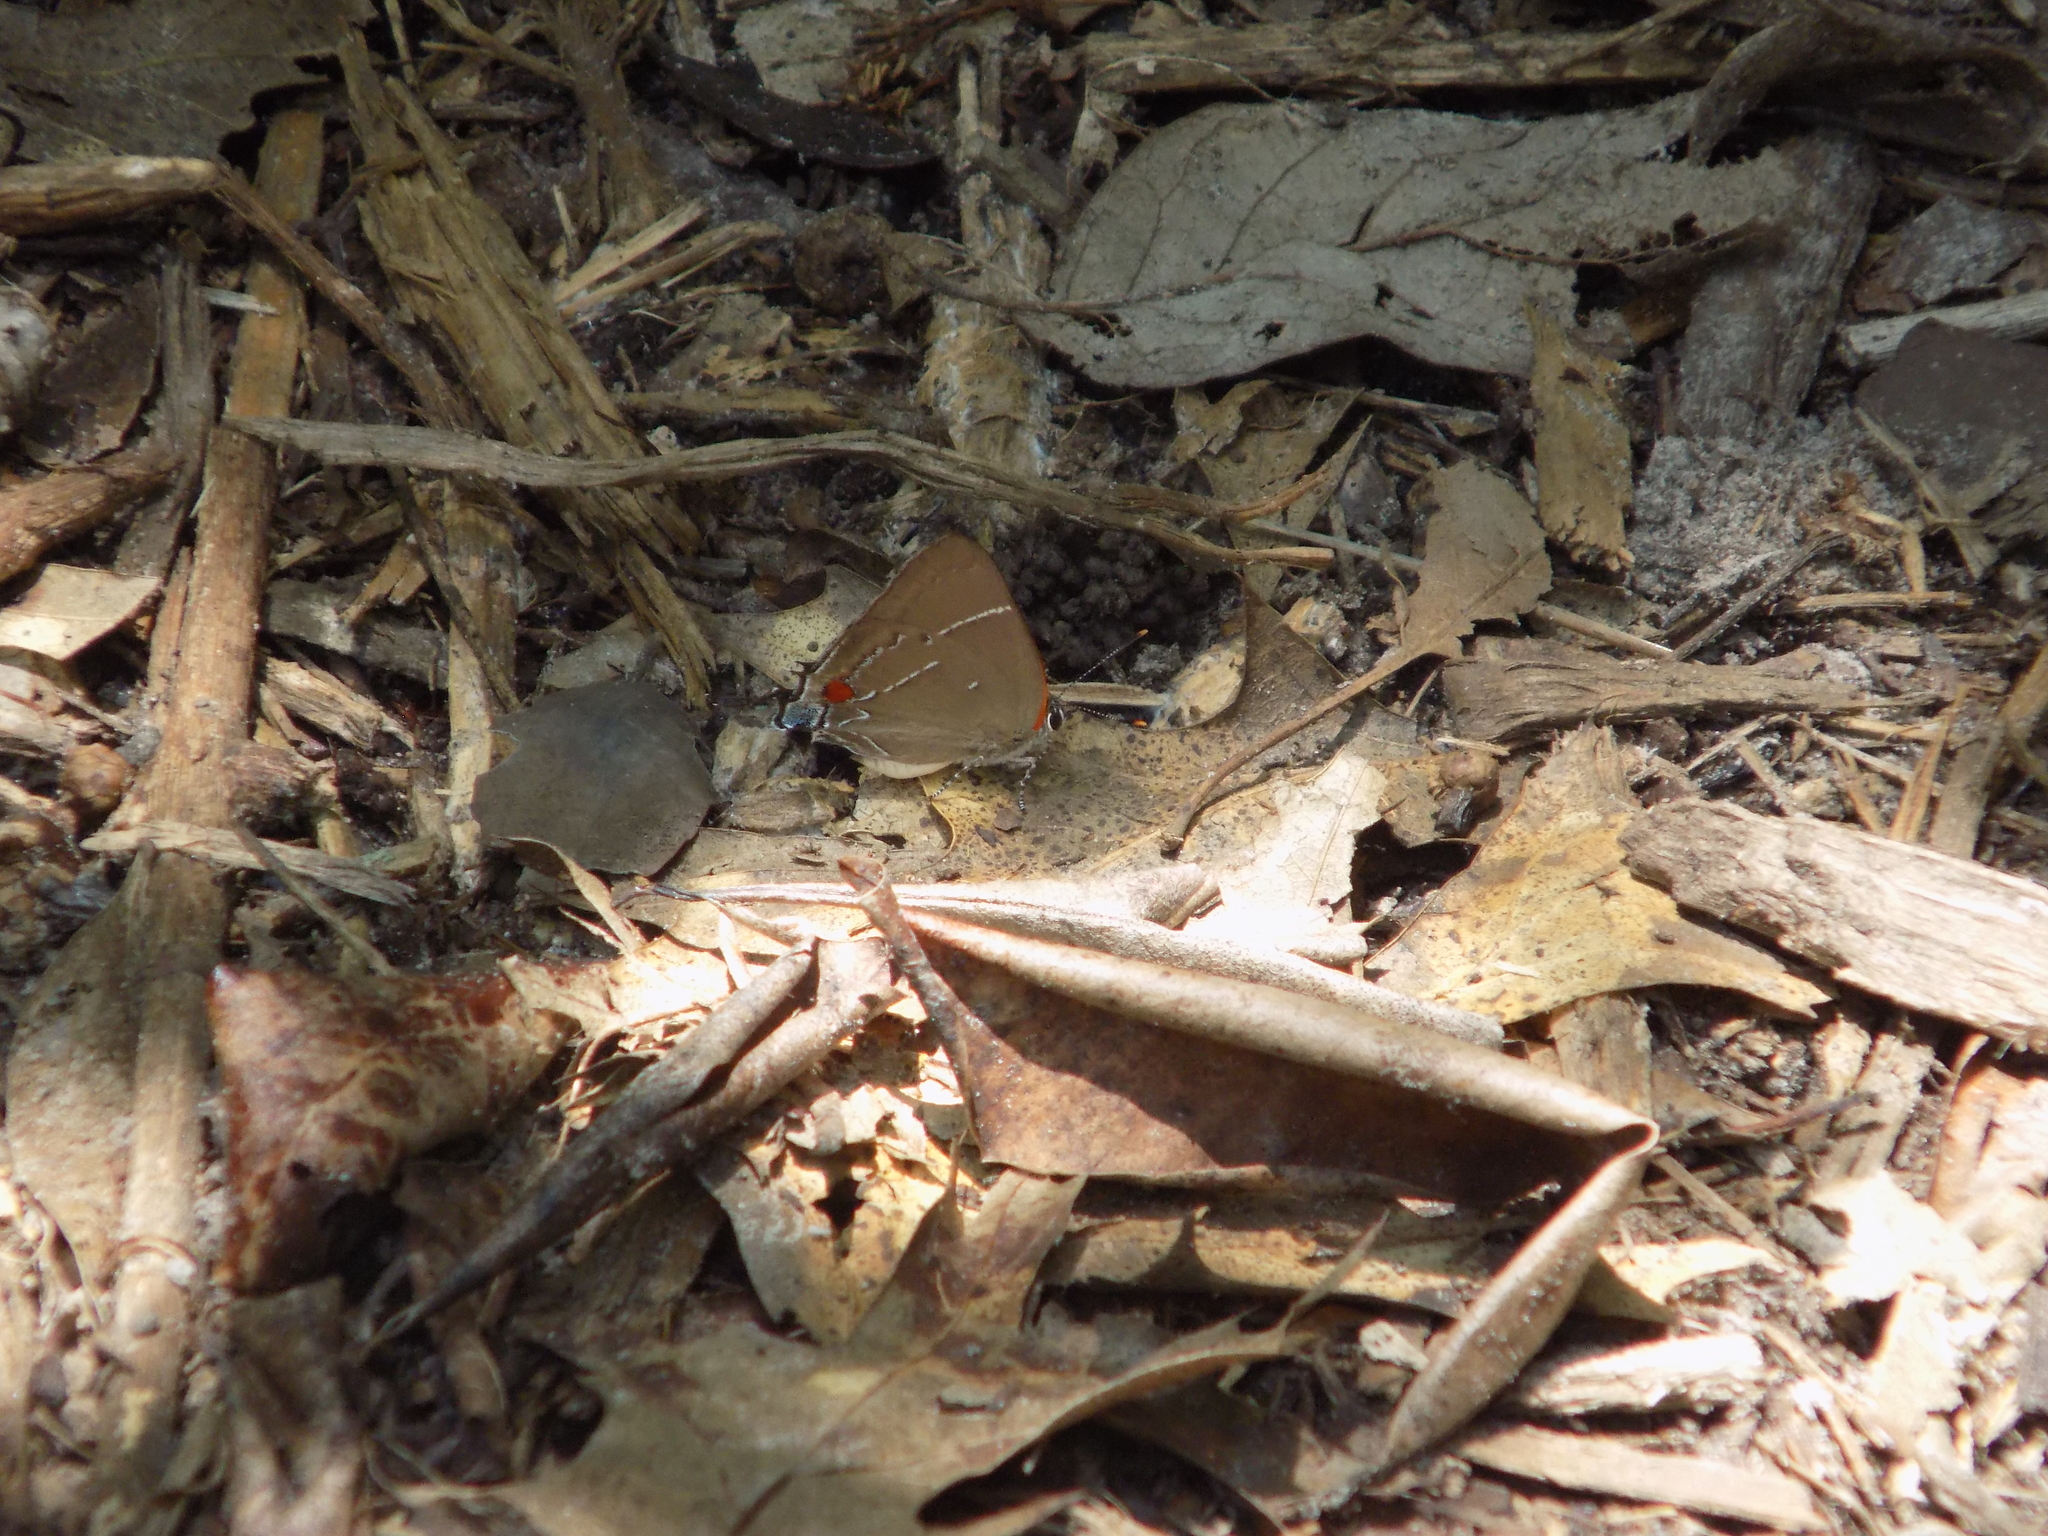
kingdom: Animalia
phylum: Arthropoda
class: Insecta
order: Lepidoptera
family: Lycaenidae
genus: Parrhasius
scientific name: Parrhasius m-album
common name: White m hairstreak
